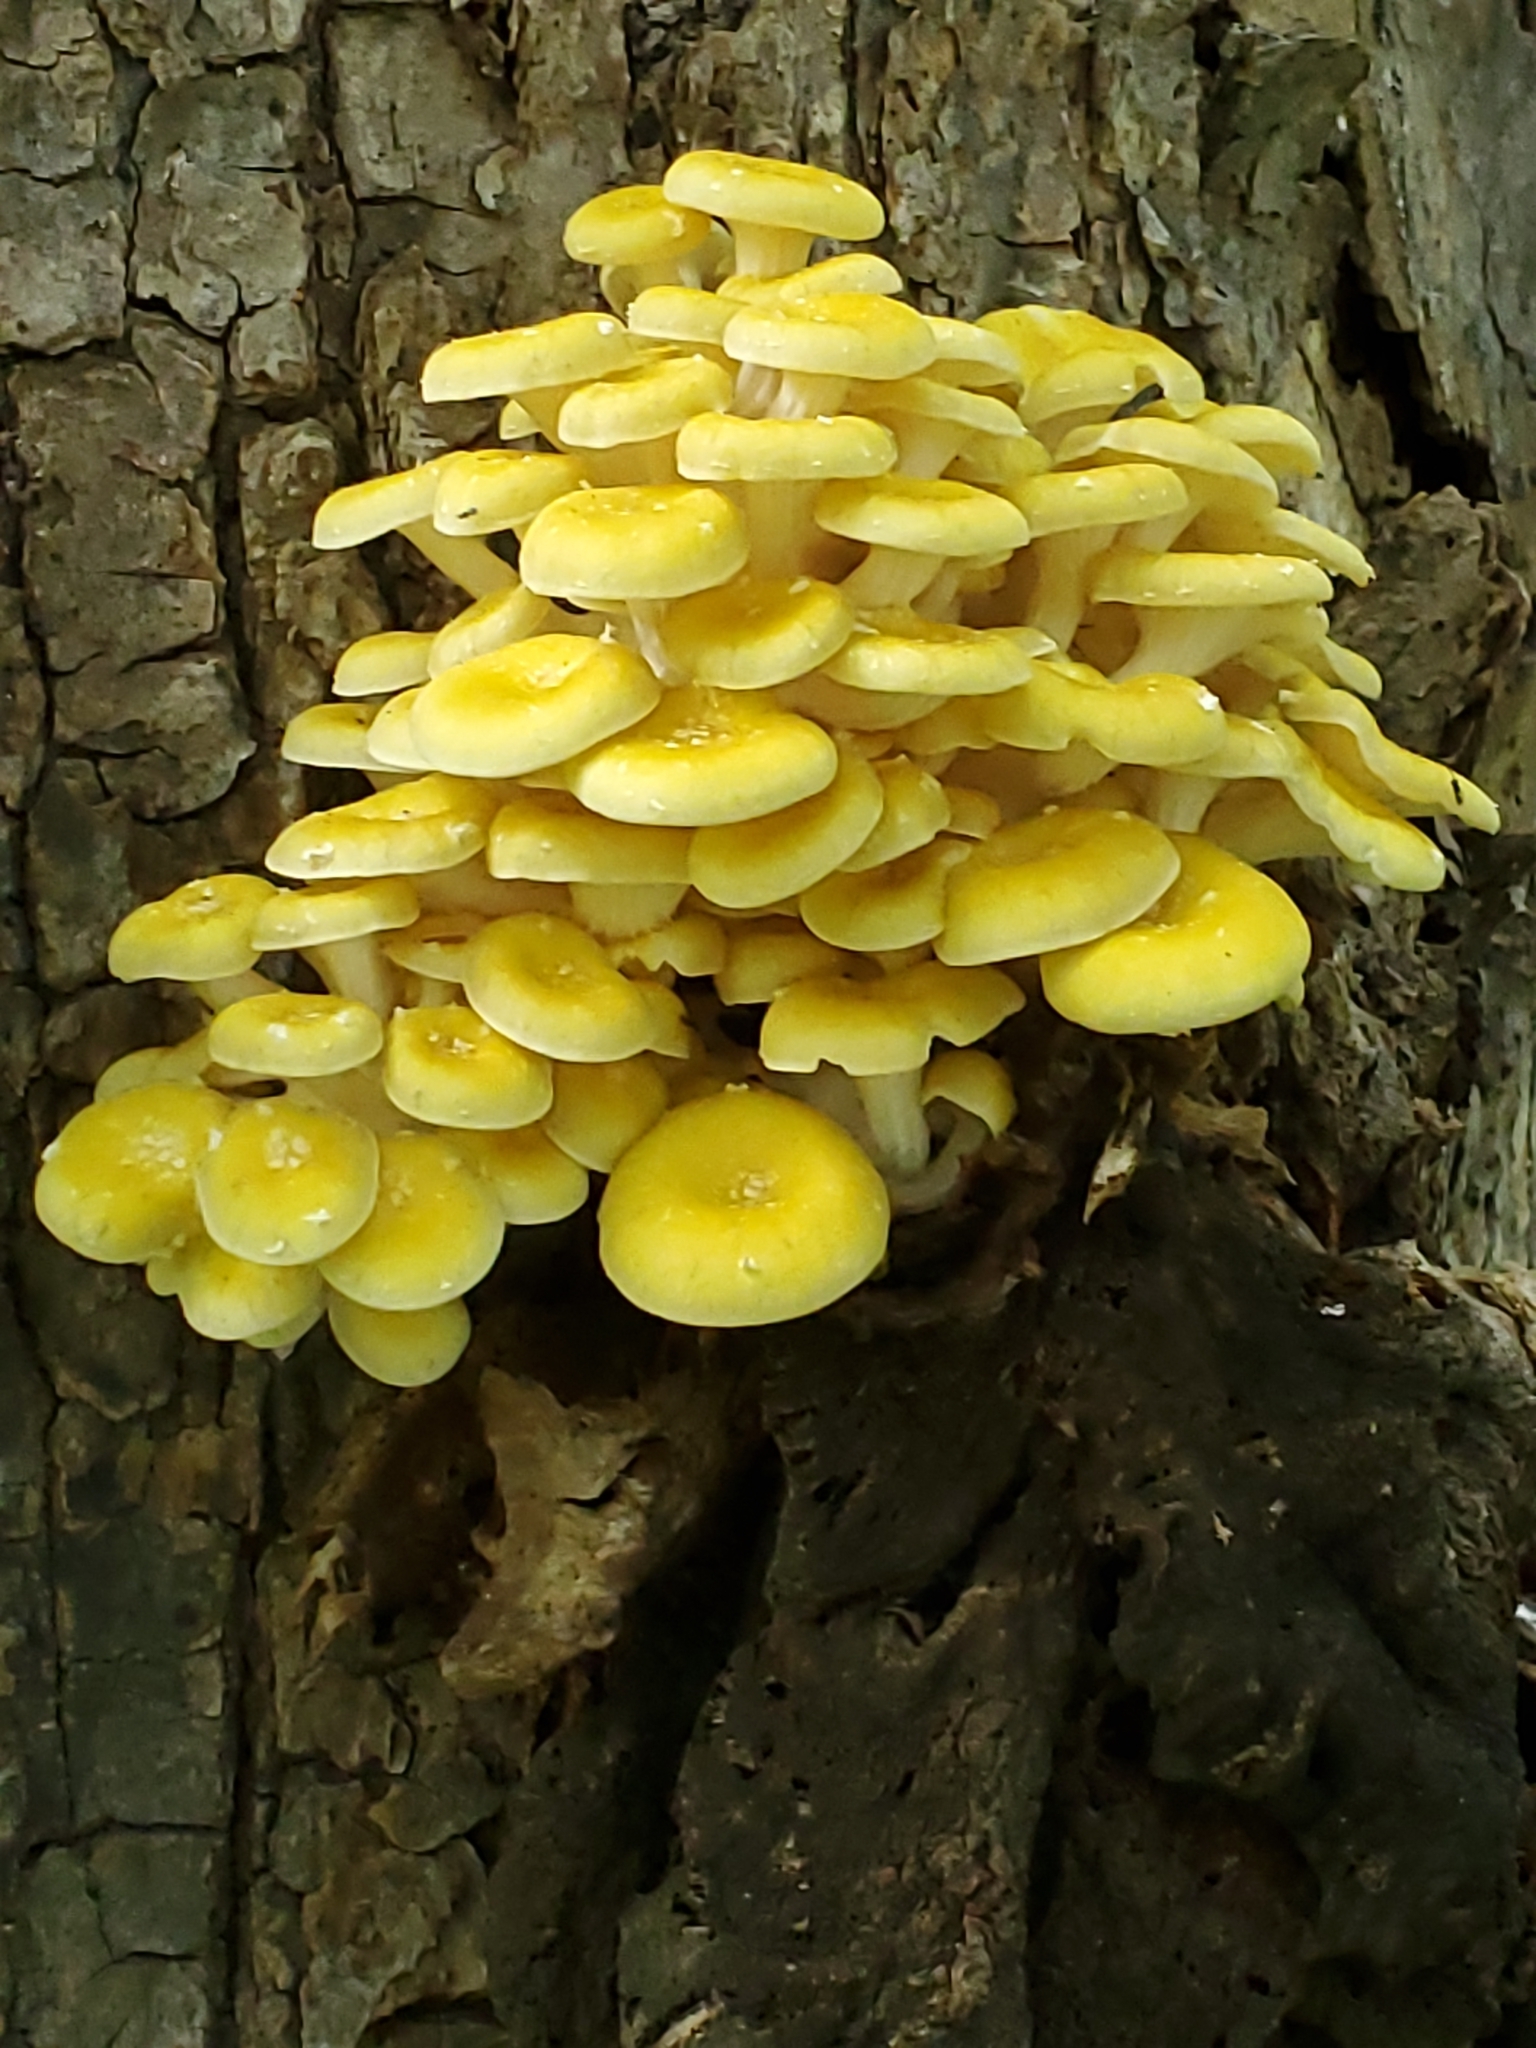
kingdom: Fungi
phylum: Basidiomycota
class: Agaricomycetes
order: Agaricales
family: Pleurotaceae
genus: Pleurotus
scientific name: Pleurotus citrinopileatus
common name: Golden oyster mushroom
